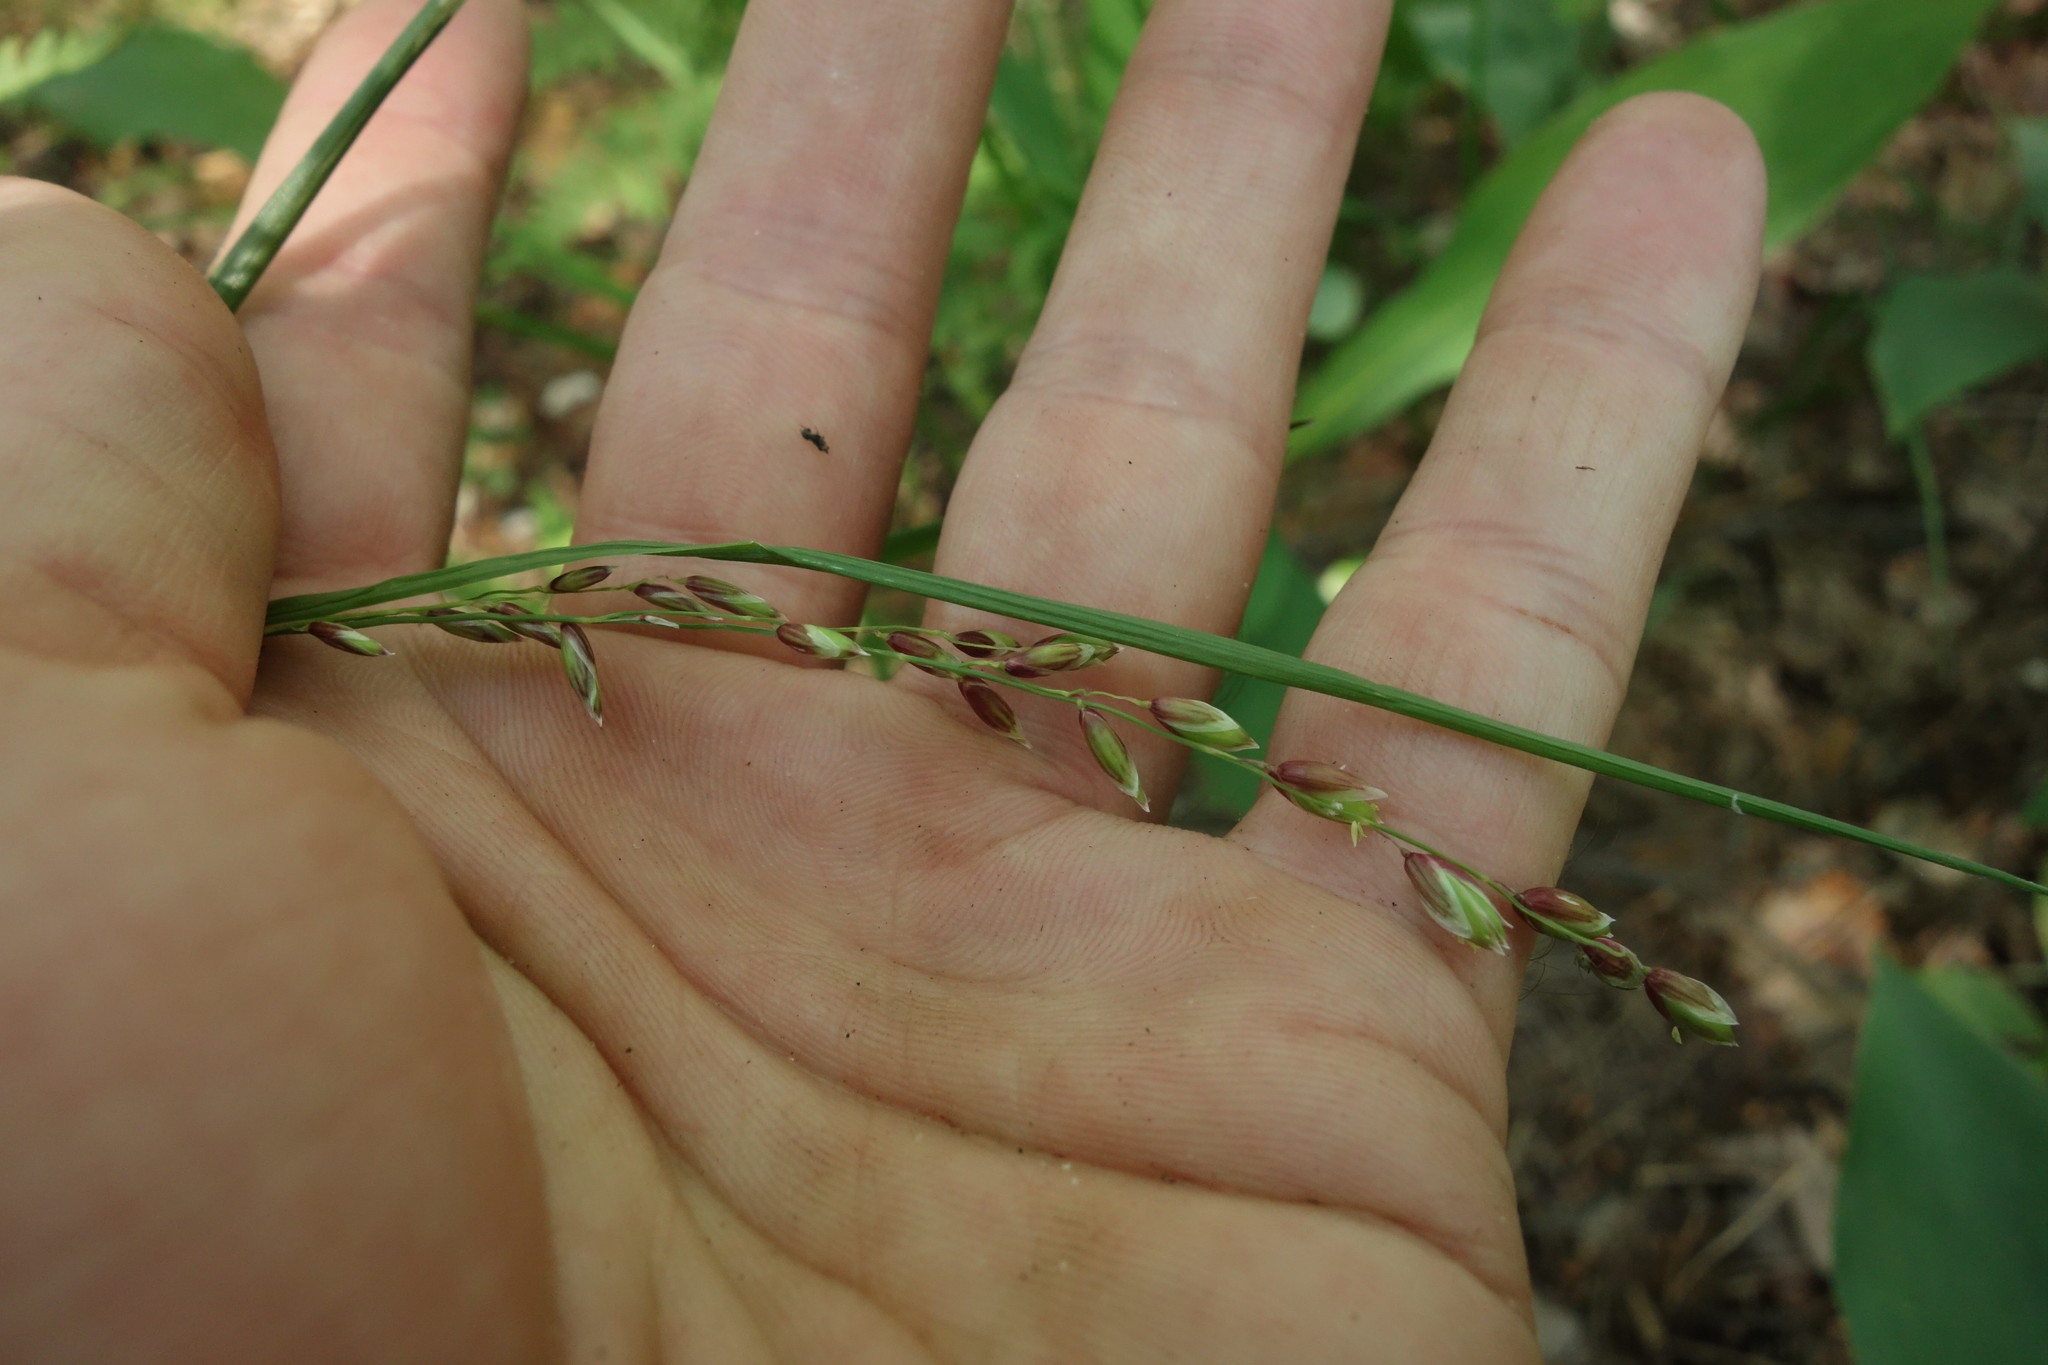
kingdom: Plantae
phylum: Tracheophyta
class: Liliopsida
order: Poales
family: Poaceae
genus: Melica
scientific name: Melica nutans
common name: Mountain melick
